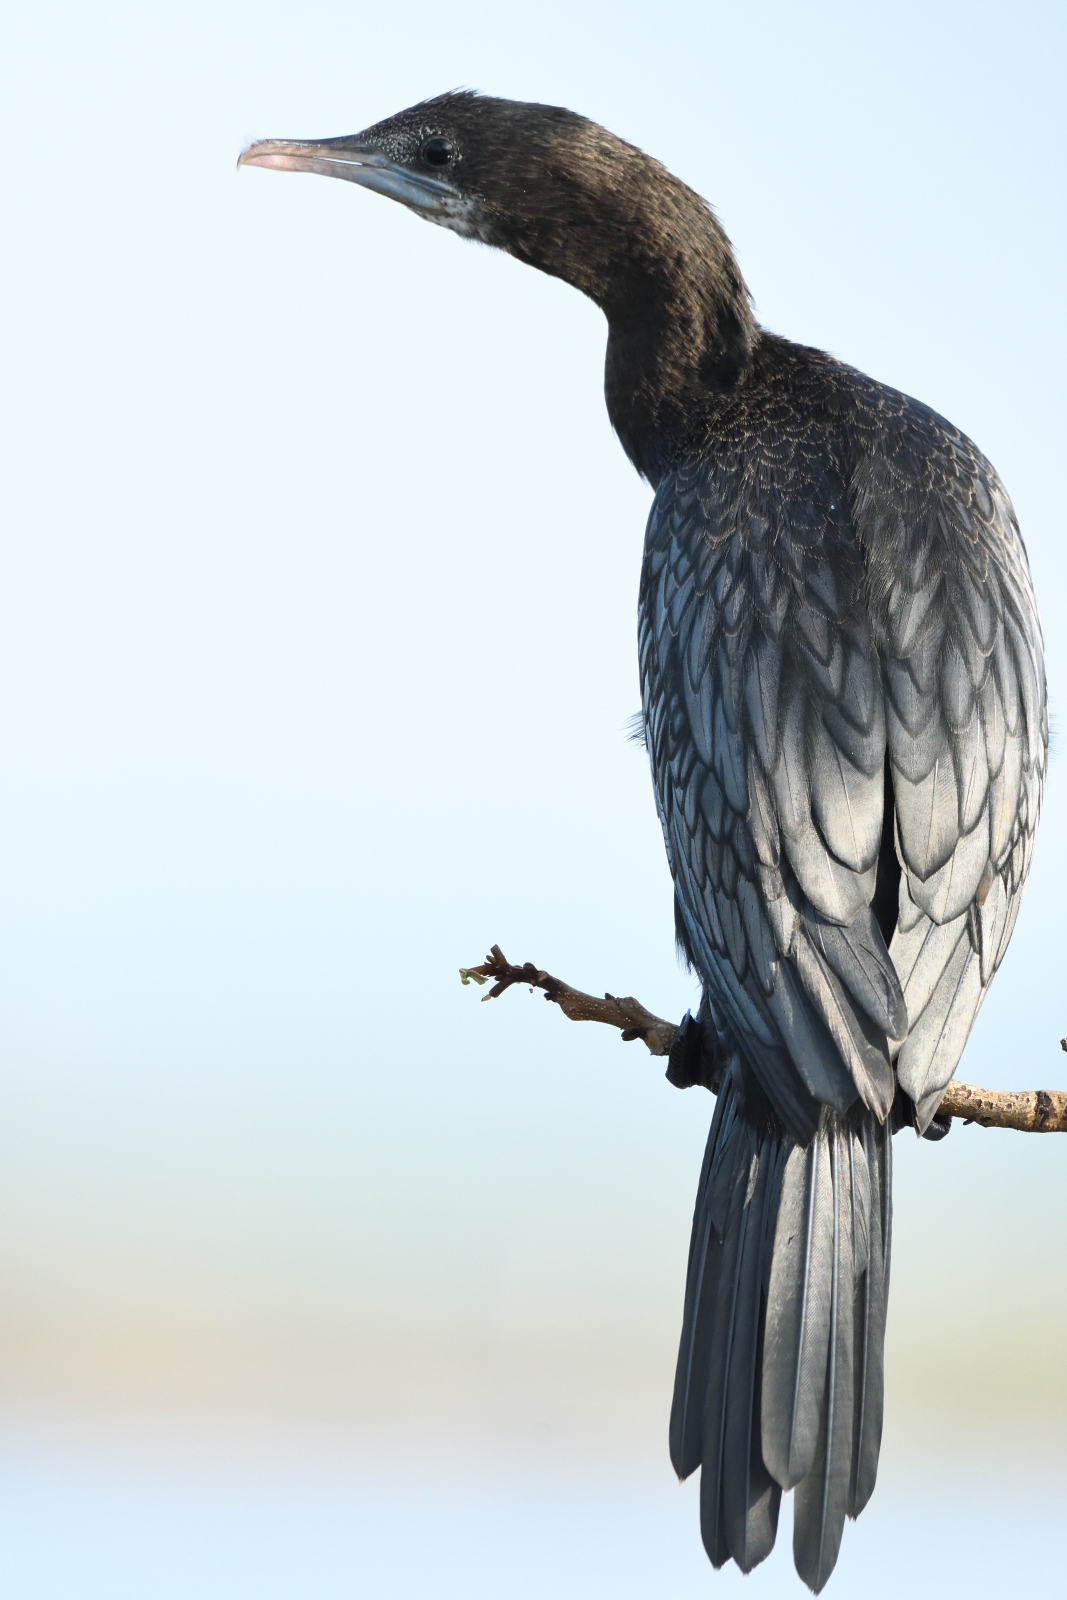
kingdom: Animalia
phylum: Chordata
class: Aves
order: Suliformes
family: Phalacrocoracidae
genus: Microcarbo
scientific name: Microcarbo niger
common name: Little cormorant
